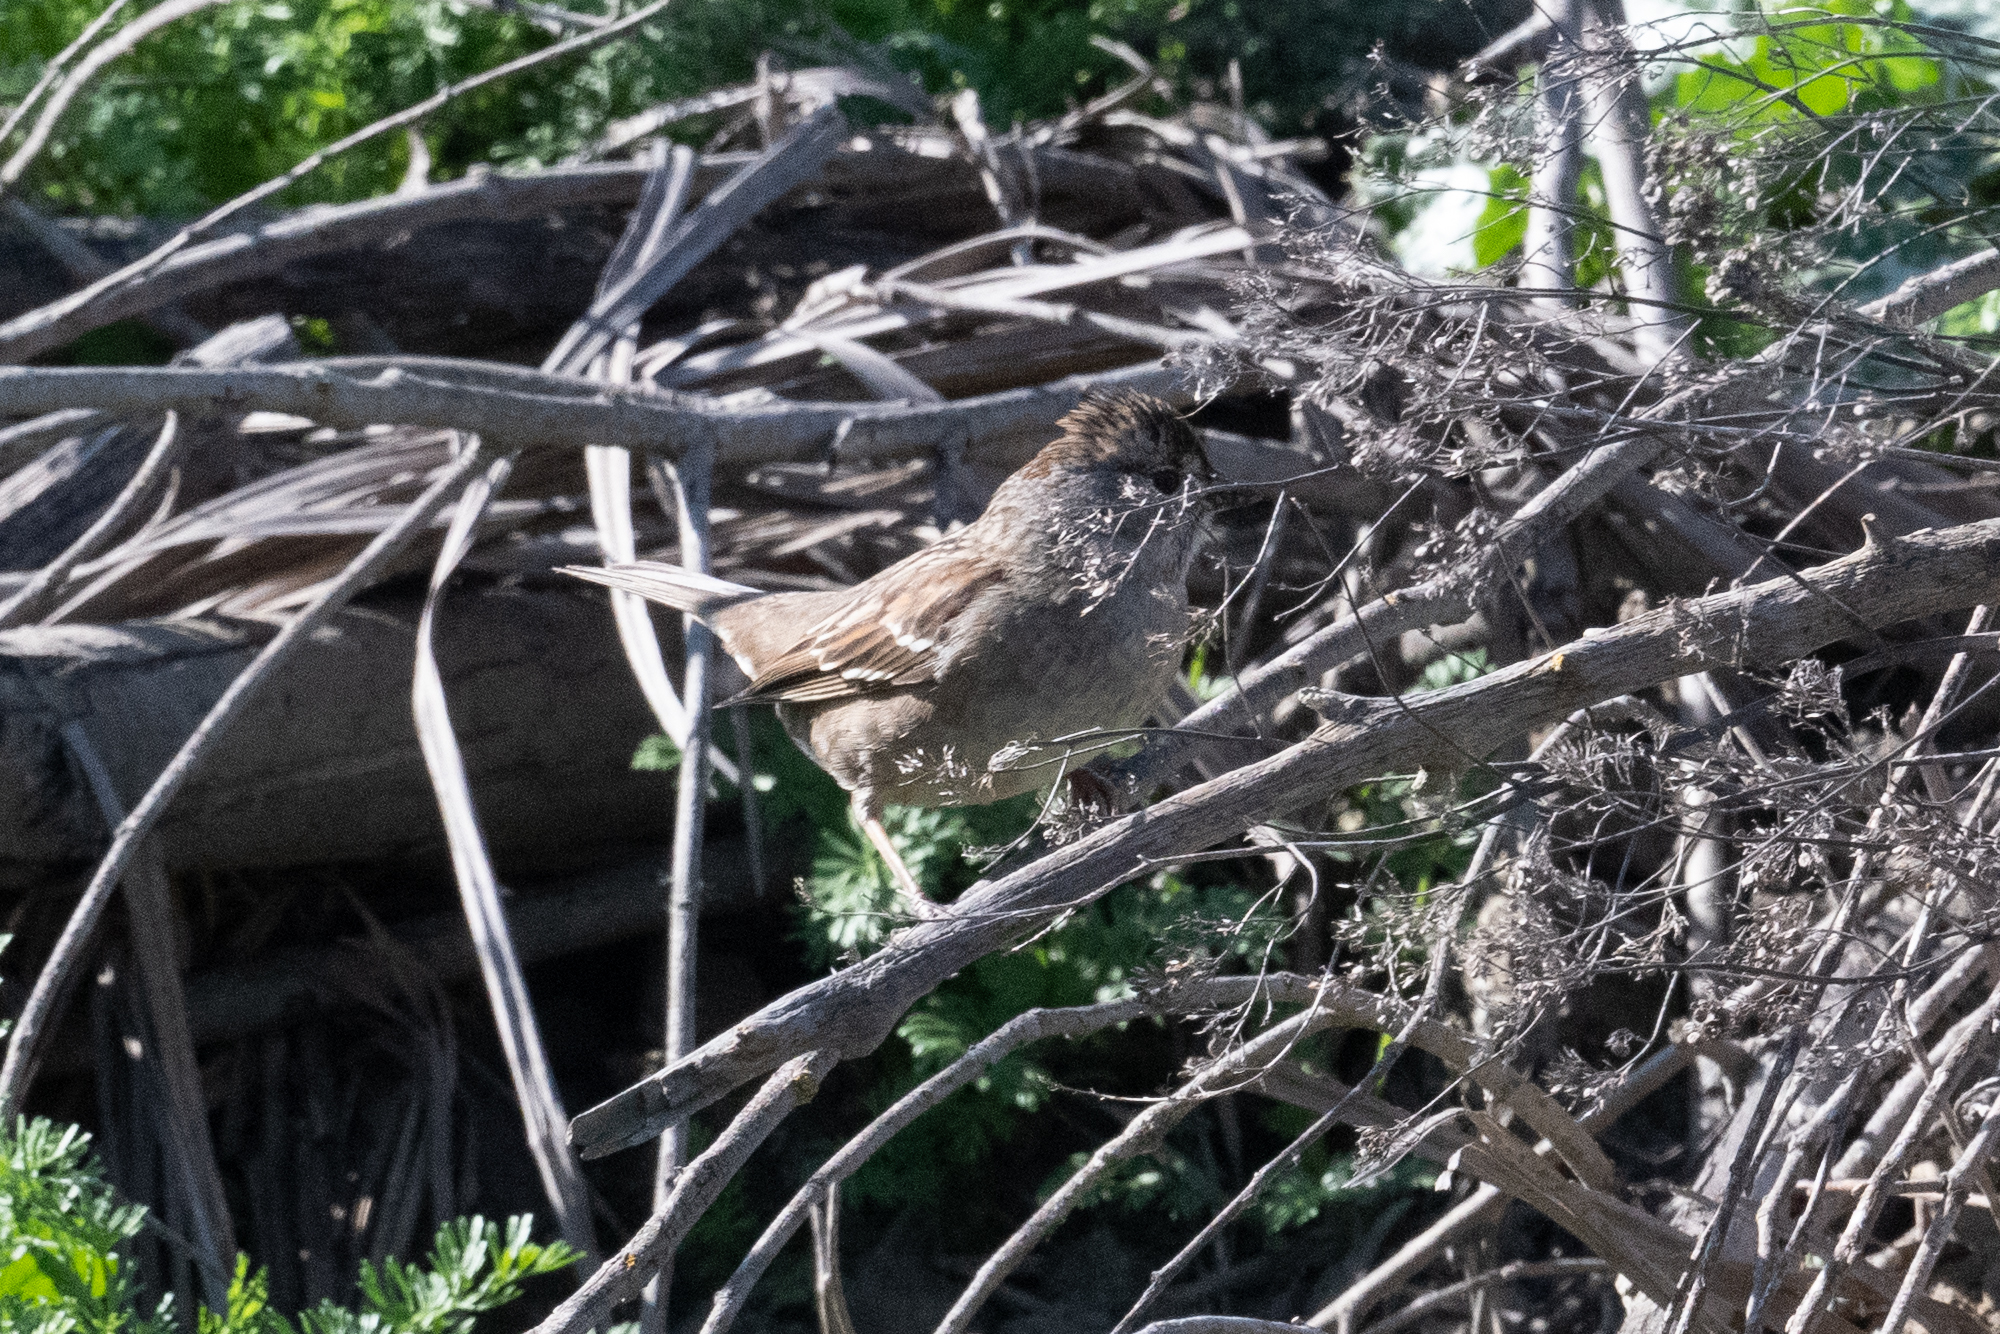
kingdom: Animalia
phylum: Chordata
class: Aves
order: Passeriformes
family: Passerellidae
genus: Zonotrichia
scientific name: Zonotrichia atricapilla
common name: Golden-crowned sparrow
